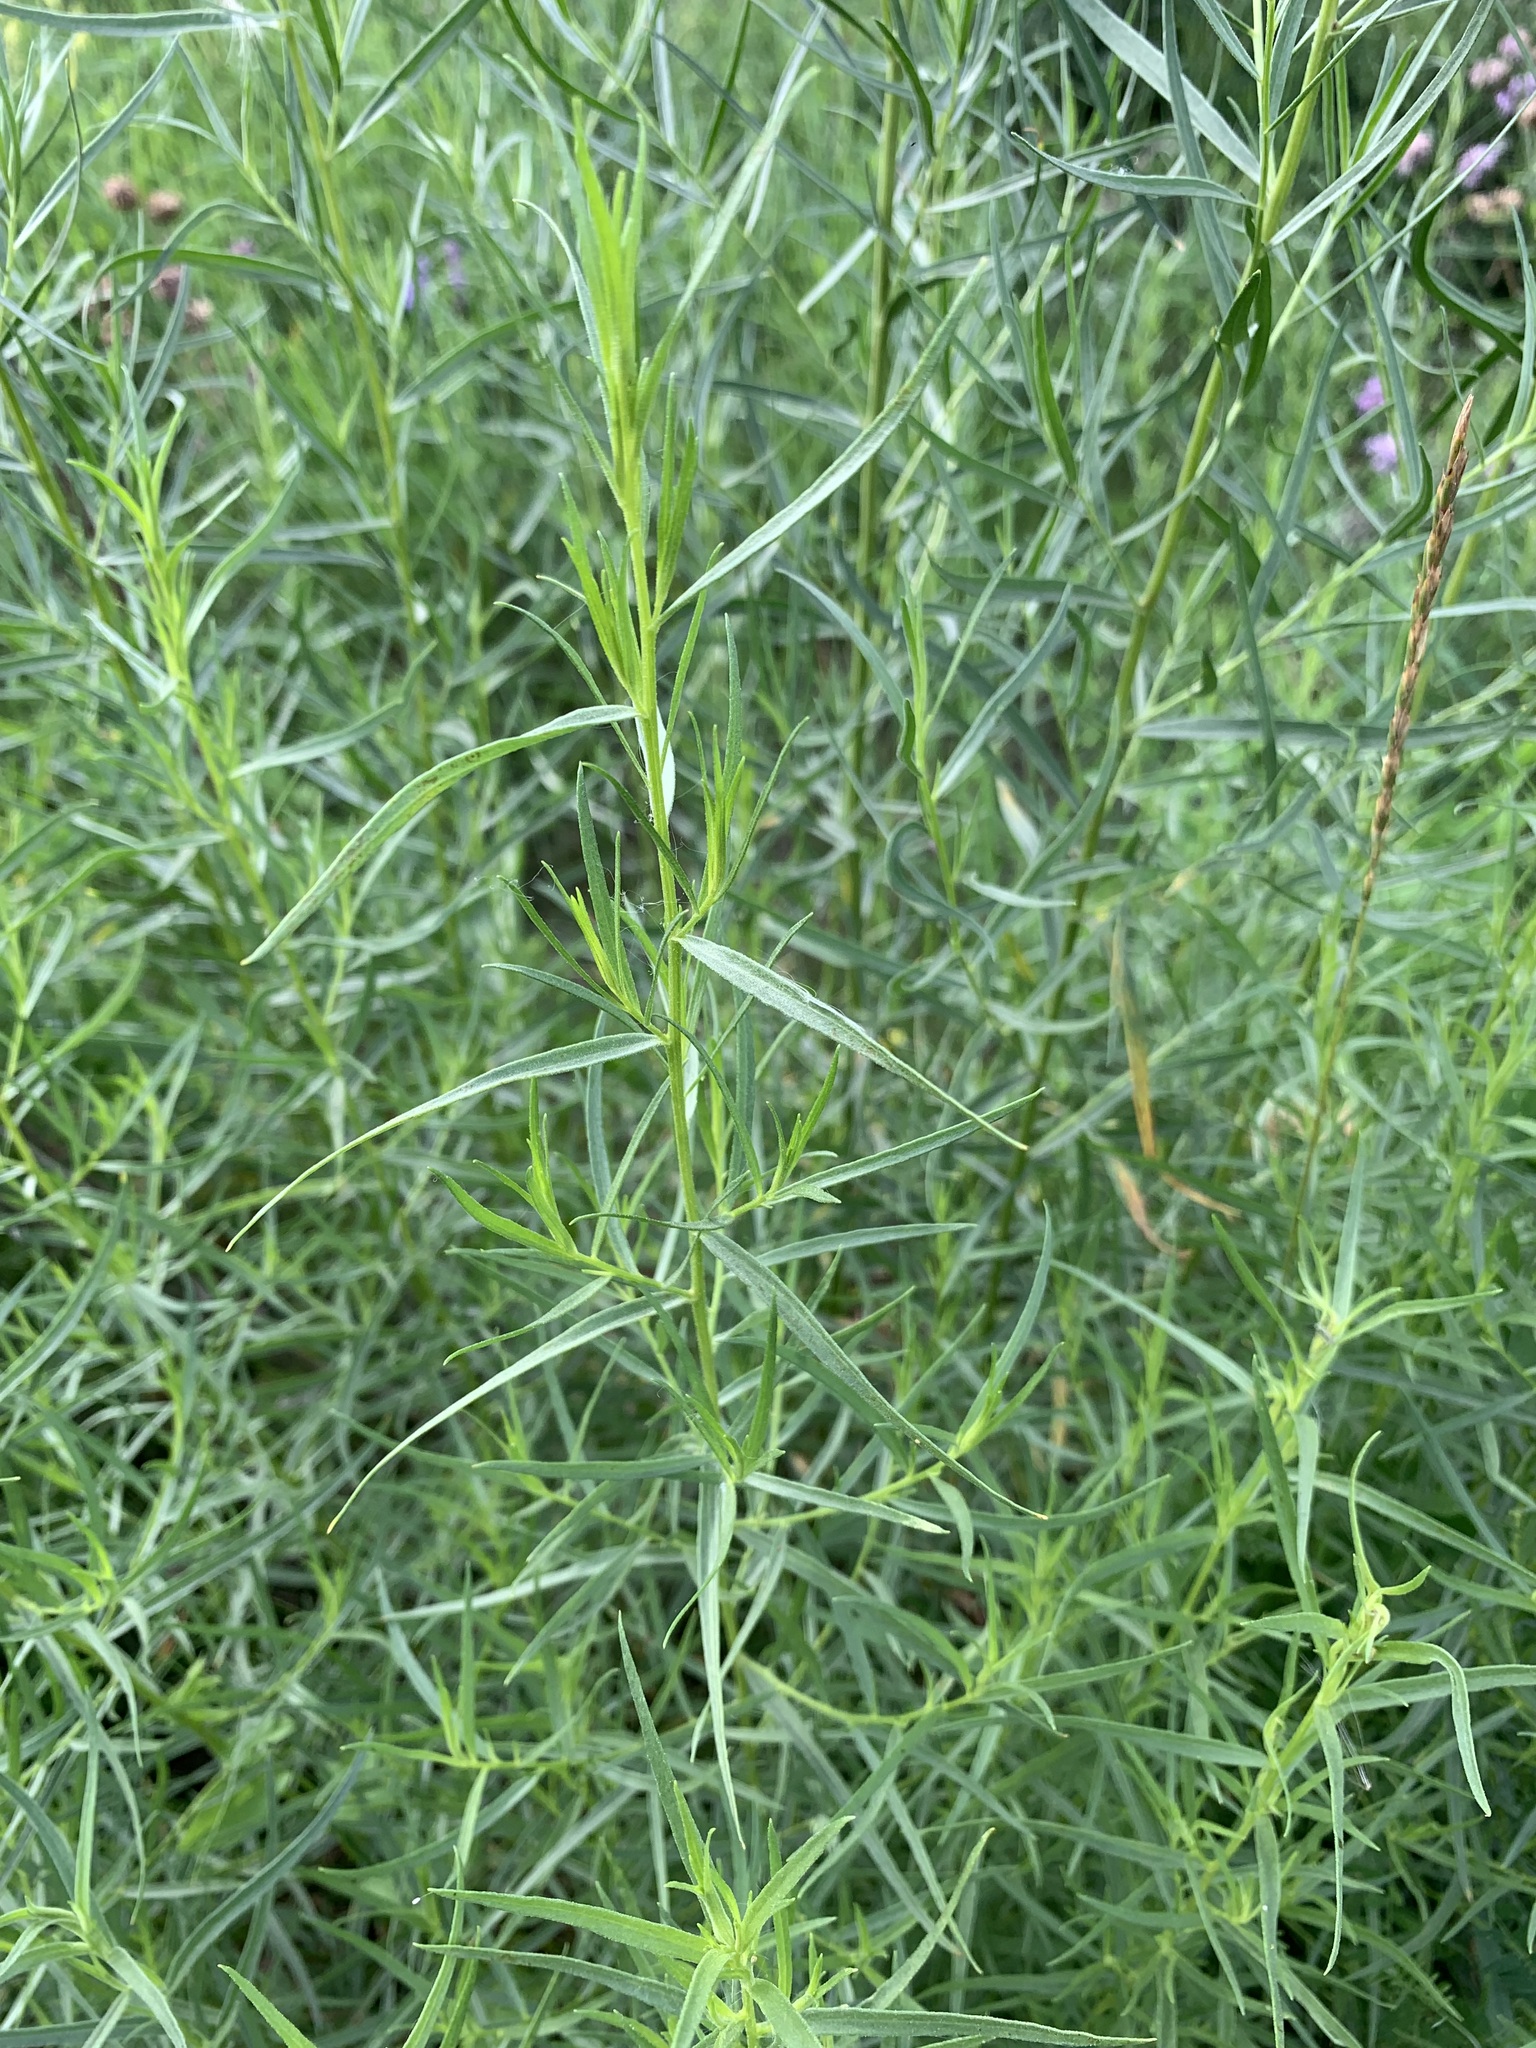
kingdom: Plantae
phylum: Tracheophyta
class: Magnoliopsida
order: Asterales
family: Asteraceae
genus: Artemisia
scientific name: Artemisia dracunculus
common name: Tarragon
